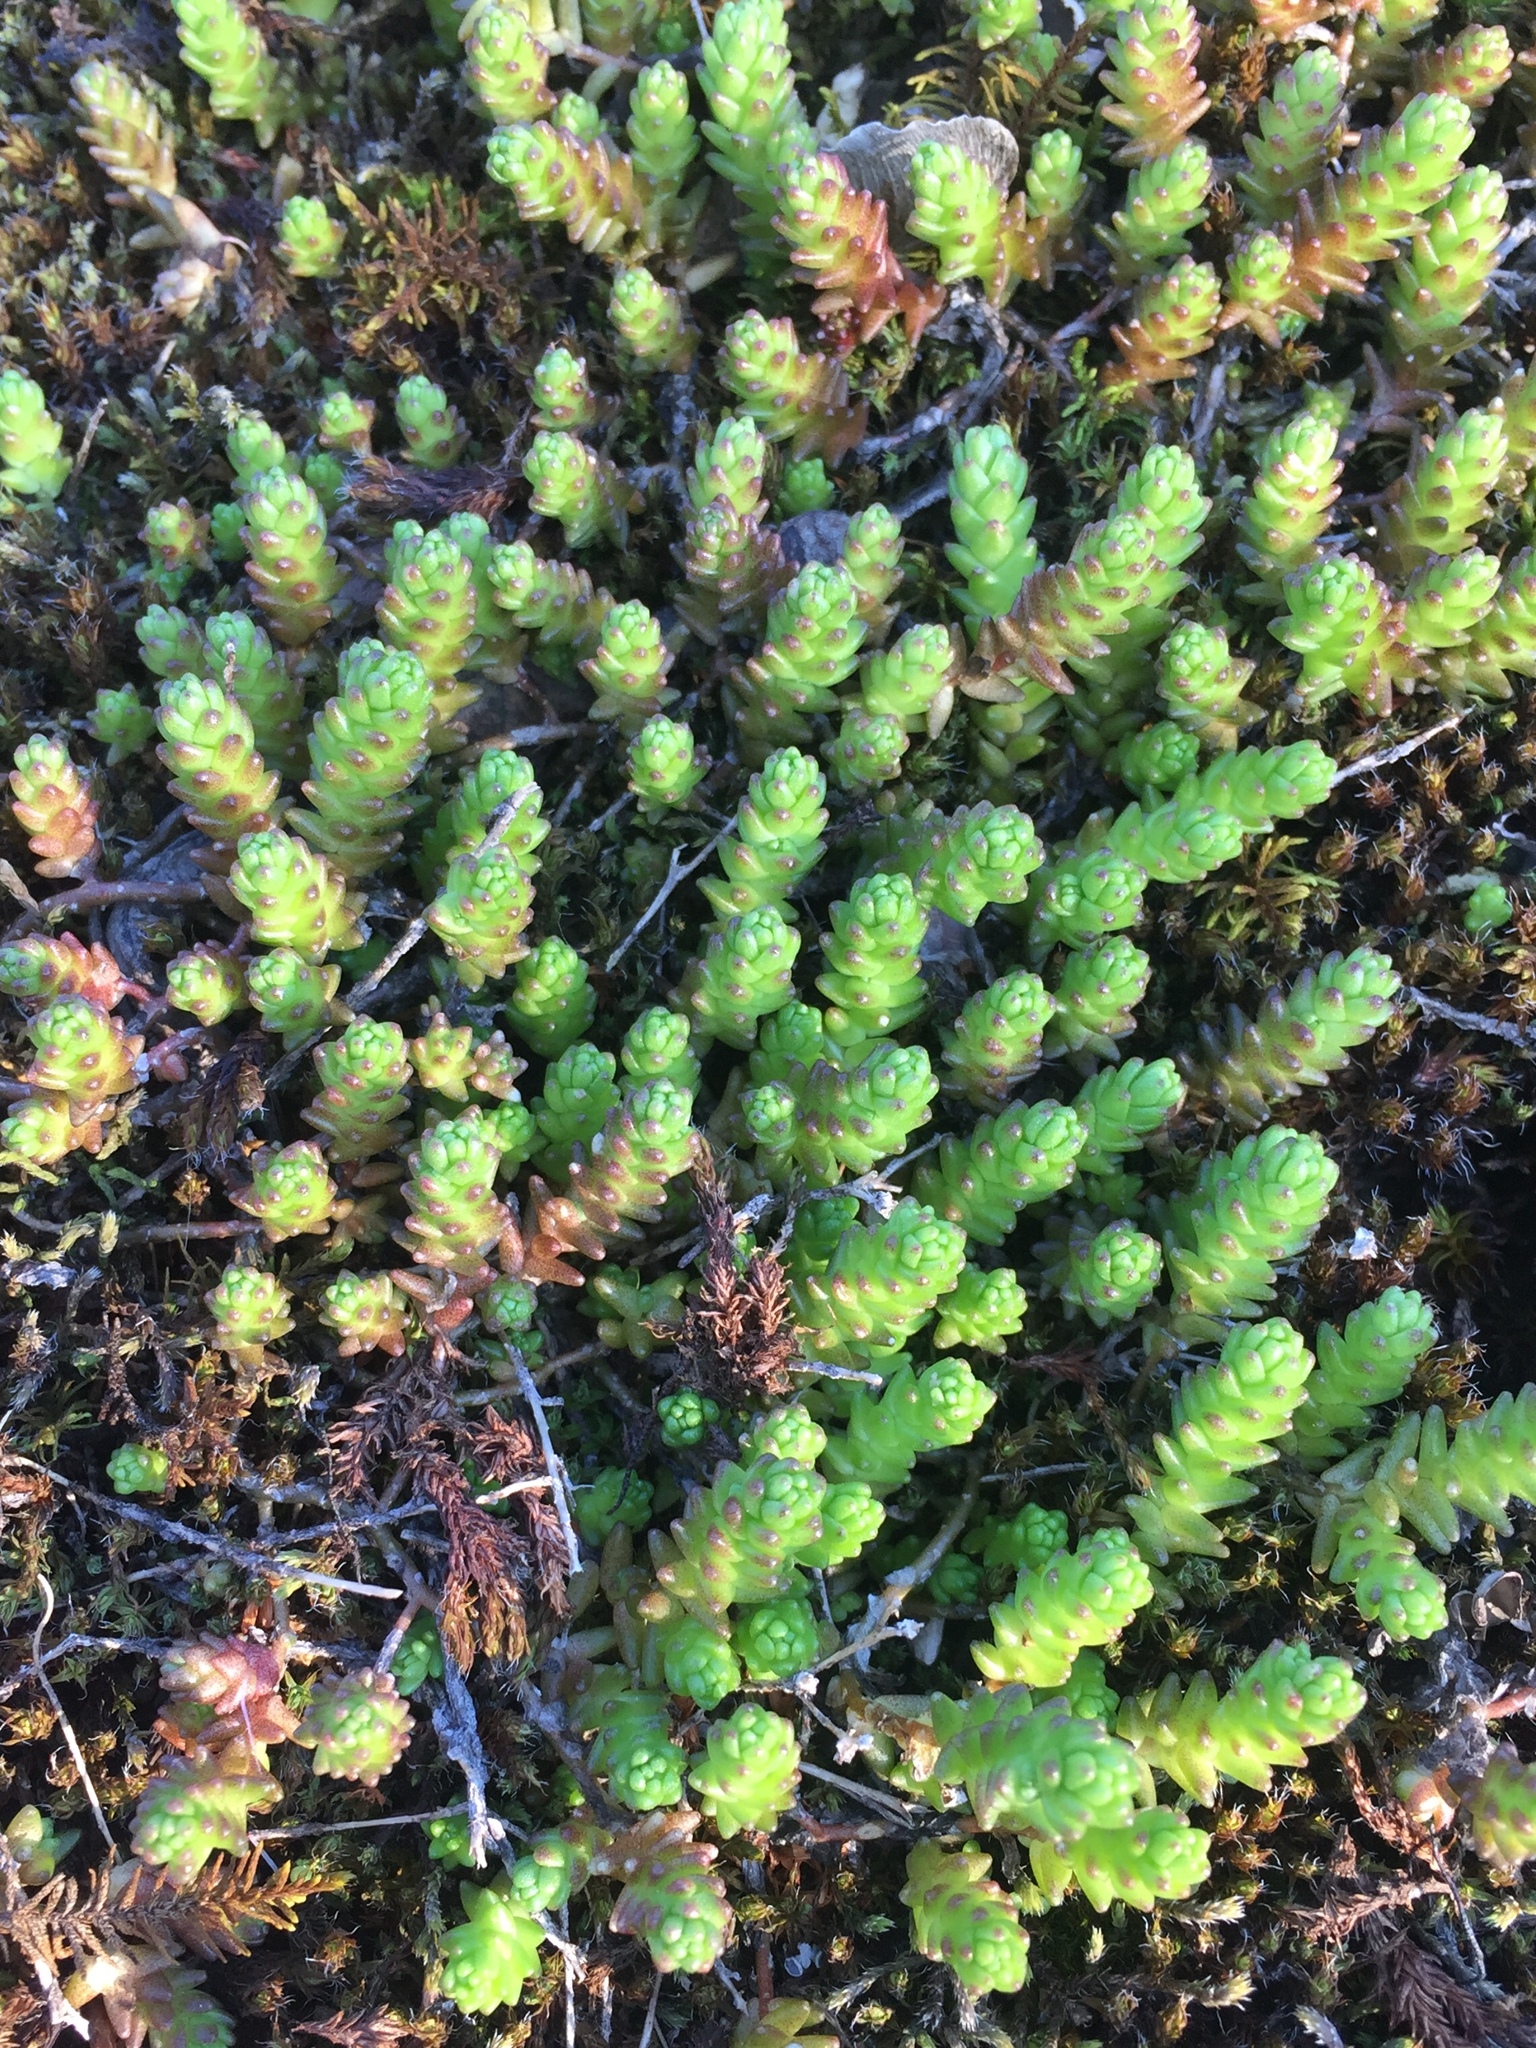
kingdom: Plantae
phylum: Tracheophyta
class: Magnoliopsida
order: Saxifragales
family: Crassulaceae
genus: Sedum
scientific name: Sedum acre
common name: Biting stonecrop
